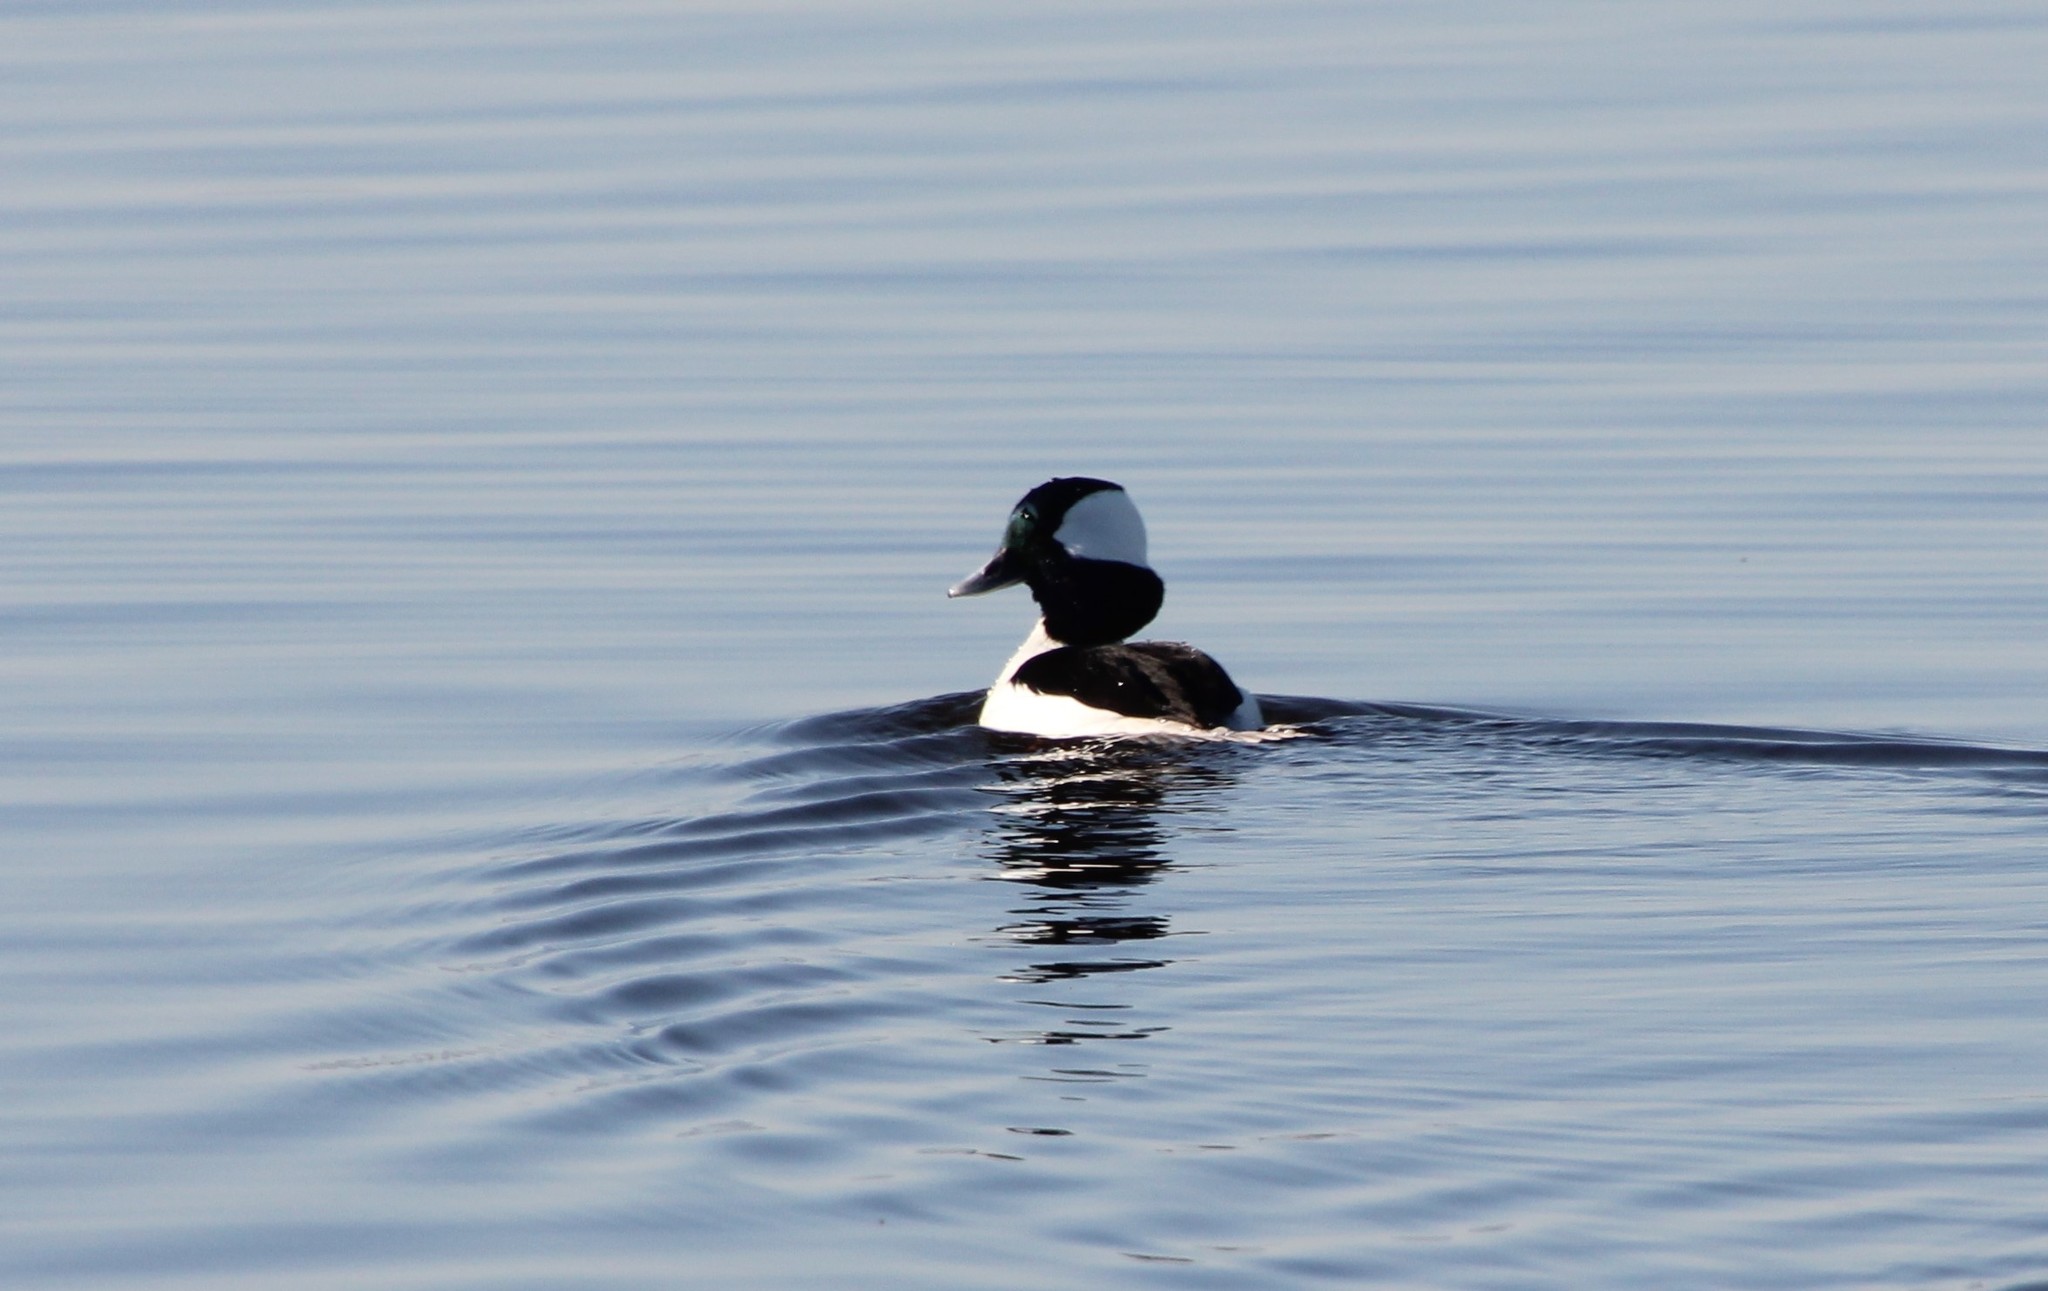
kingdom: Animalia
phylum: Chordata
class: Aves
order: Anseriformes
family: Anatidae
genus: Bucephala
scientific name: Bucephala albeola
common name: Bufflehead
